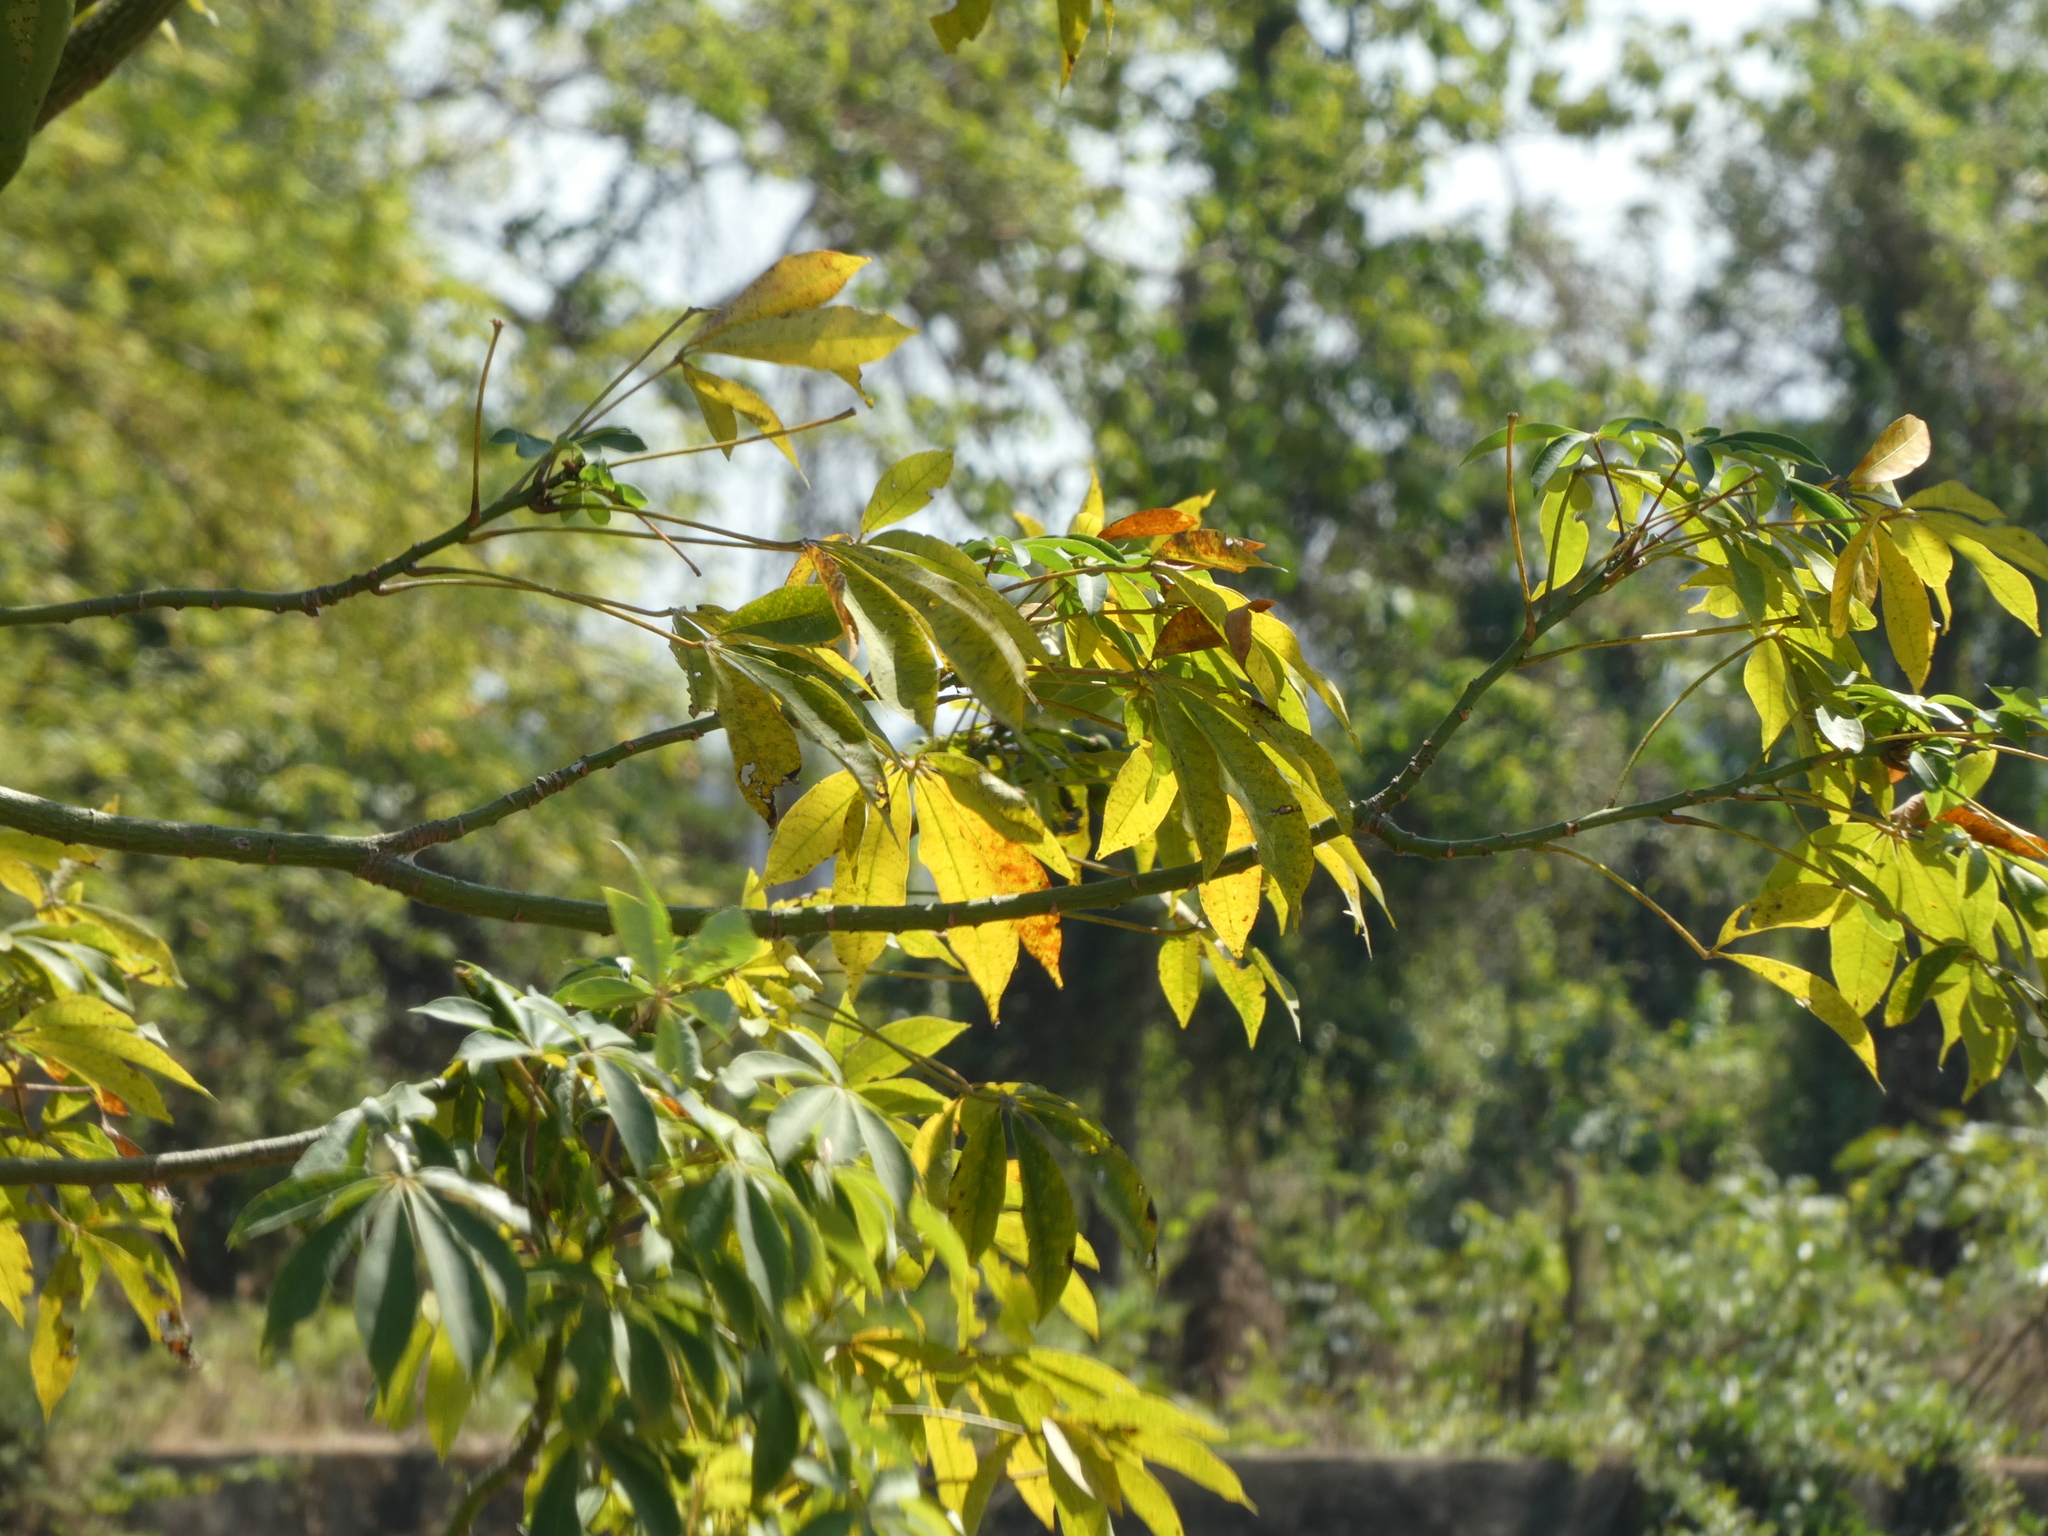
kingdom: Plantae
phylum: Tracheophyta
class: Magnoliopsida
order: Malvales
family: Malvaceae
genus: Ceiba
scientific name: Ceiba pentandra
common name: Kapok
